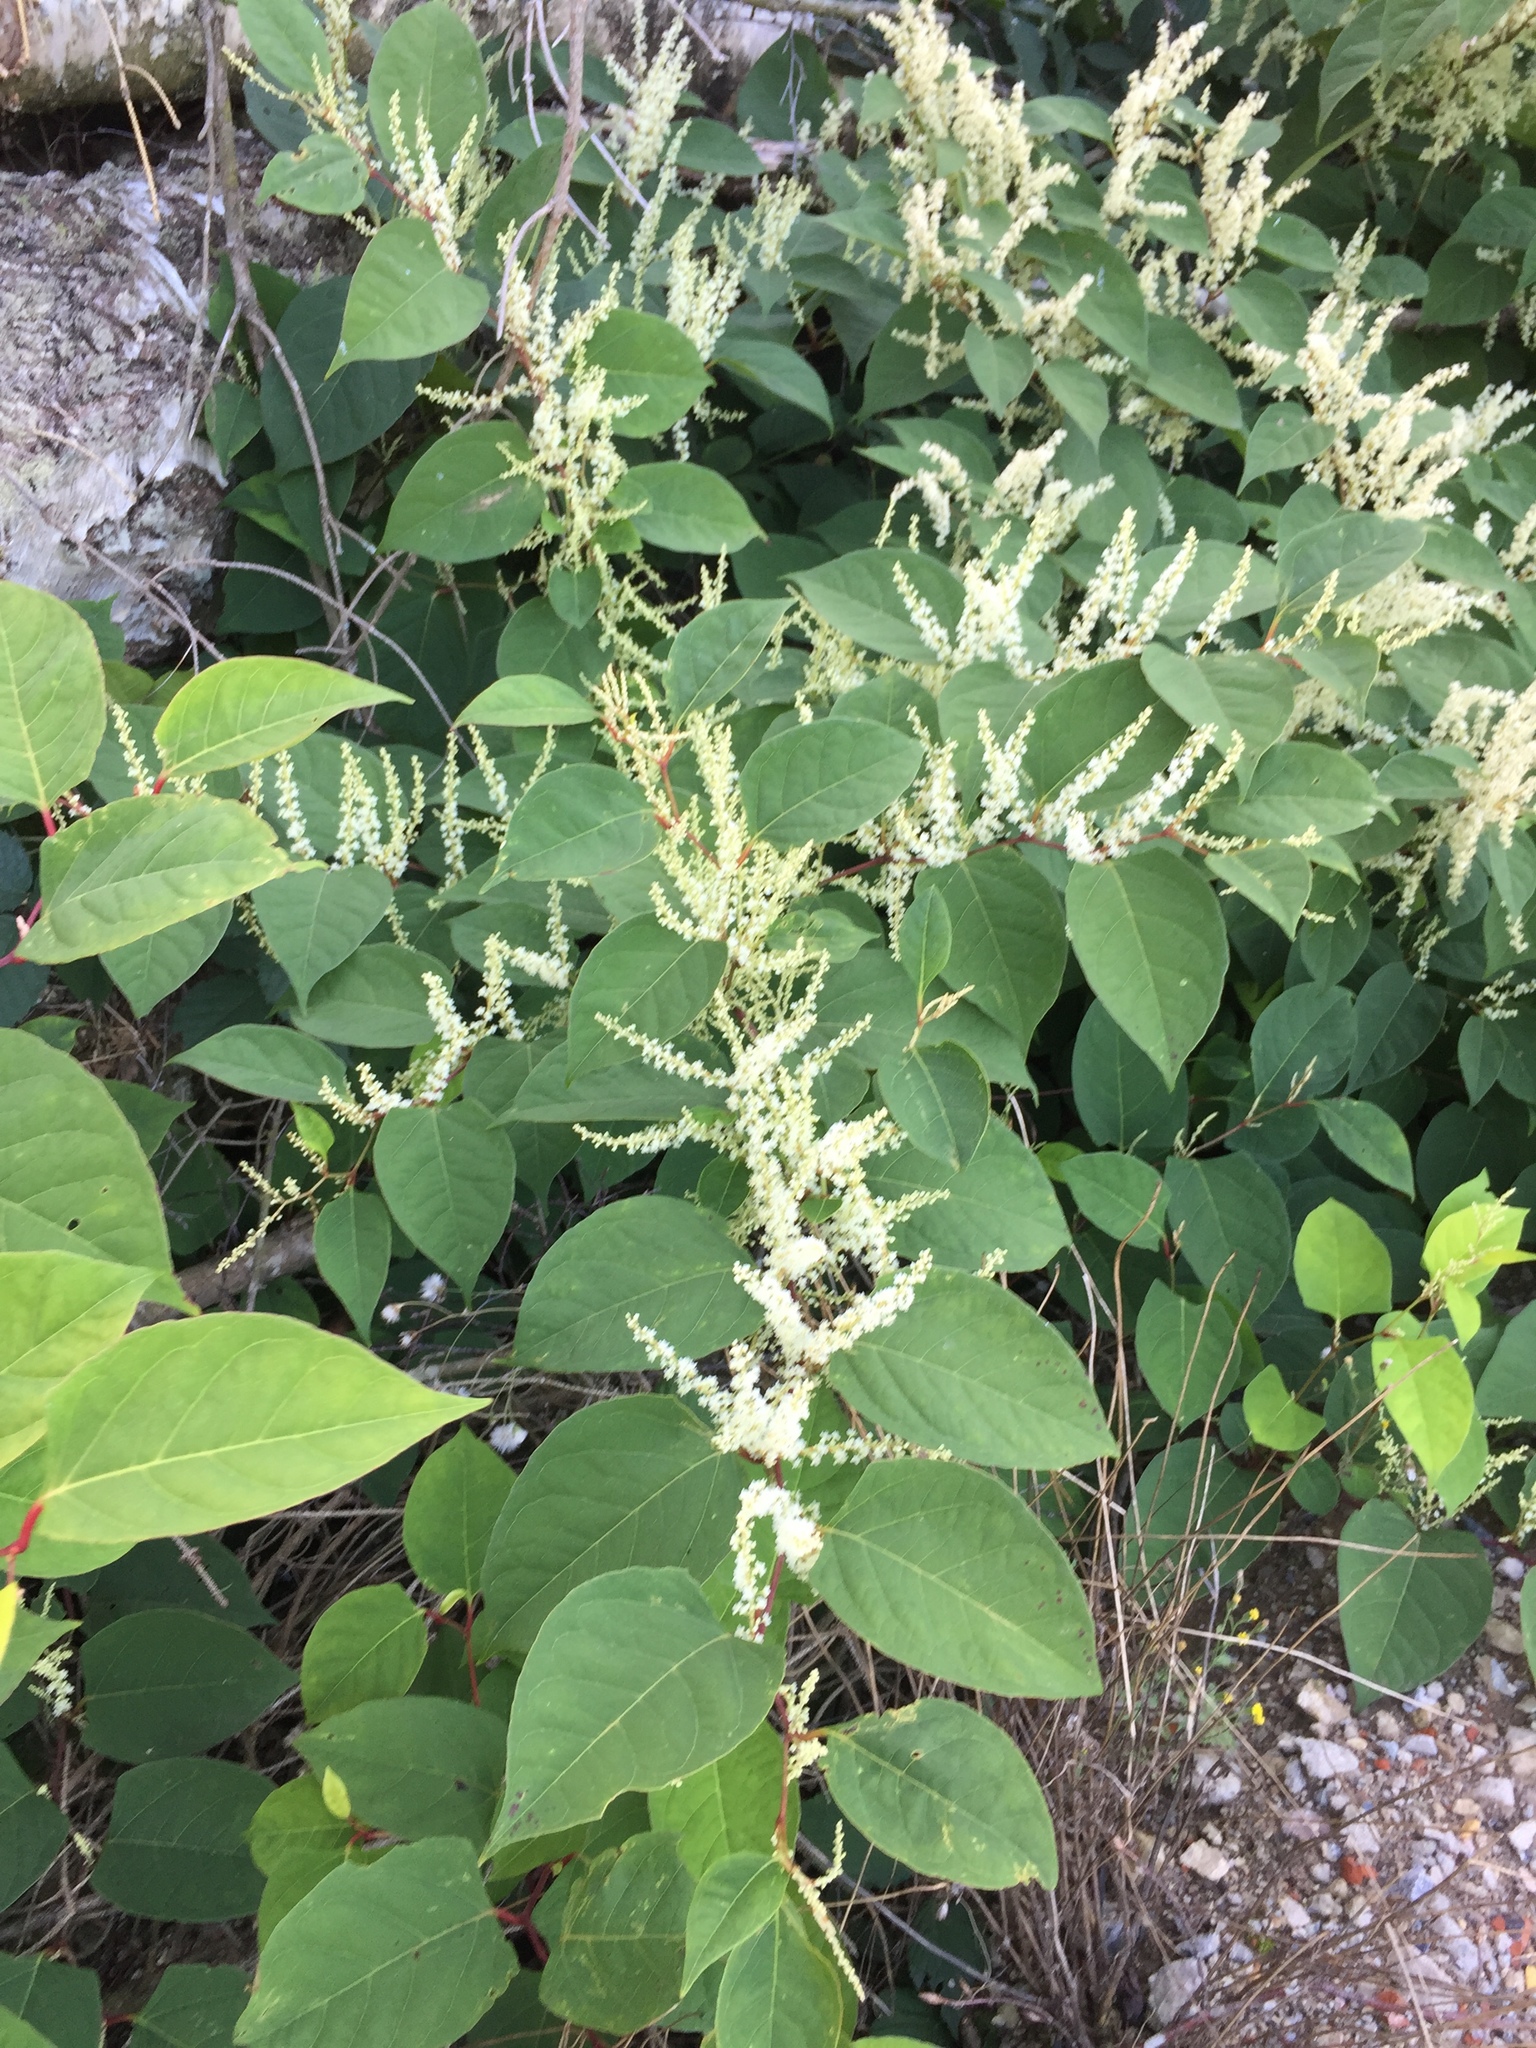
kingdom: Plantae
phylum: Tracheophyta
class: Magnoliopsida
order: Caryophyllales
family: Polygonaceae
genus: Reynoutria
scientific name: Reynoutria japonica
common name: Japanese knotweed
